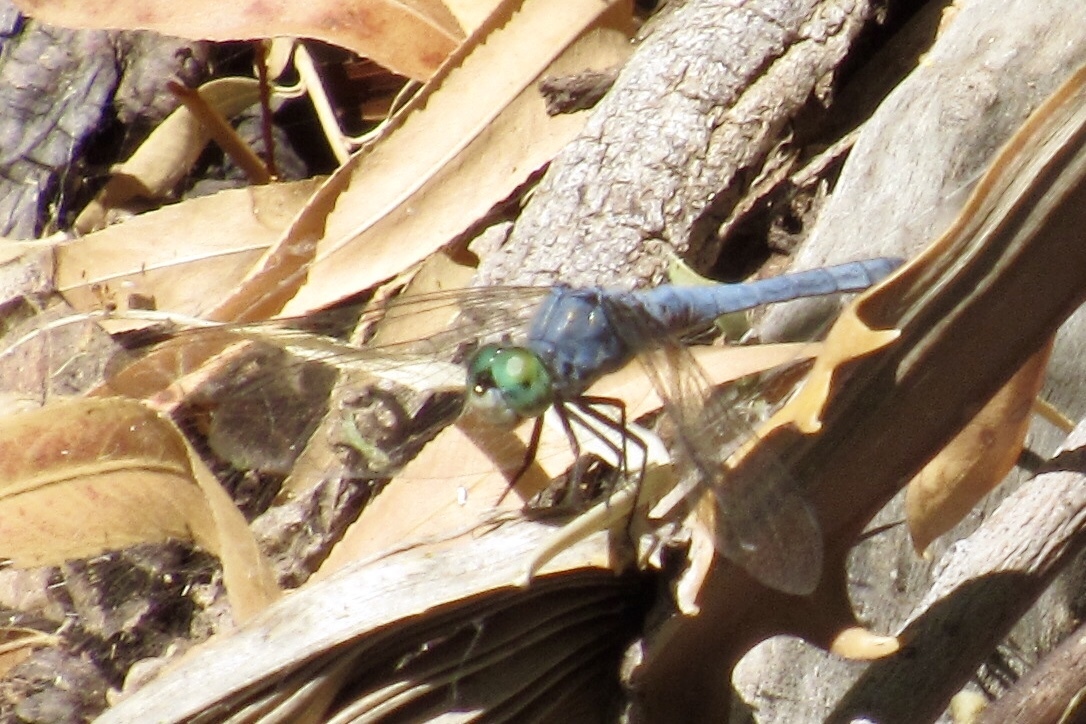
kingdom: Animalia
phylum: Arthropoda
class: Insecta
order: Odonata
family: Libellulidae
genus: Pachydiplax
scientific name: Pachydiplax longipennis
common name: Blue dasher
